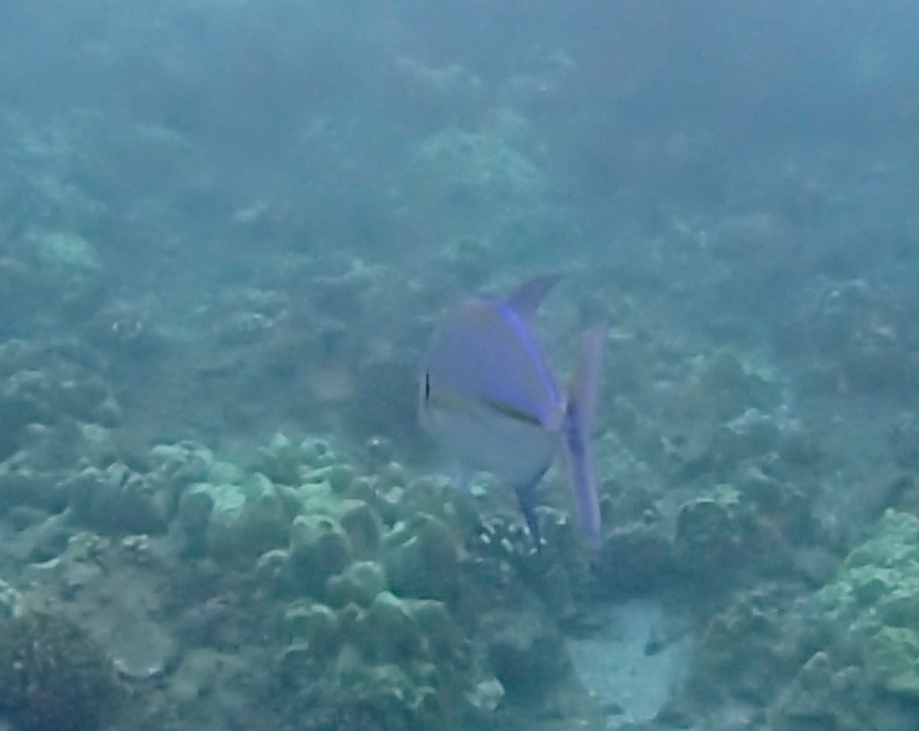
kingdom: Animalia
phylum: Chordata
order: Perciformes
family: Carangidae
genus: Caranx
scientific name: Caranx melampygus
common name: Bluefin trevally
